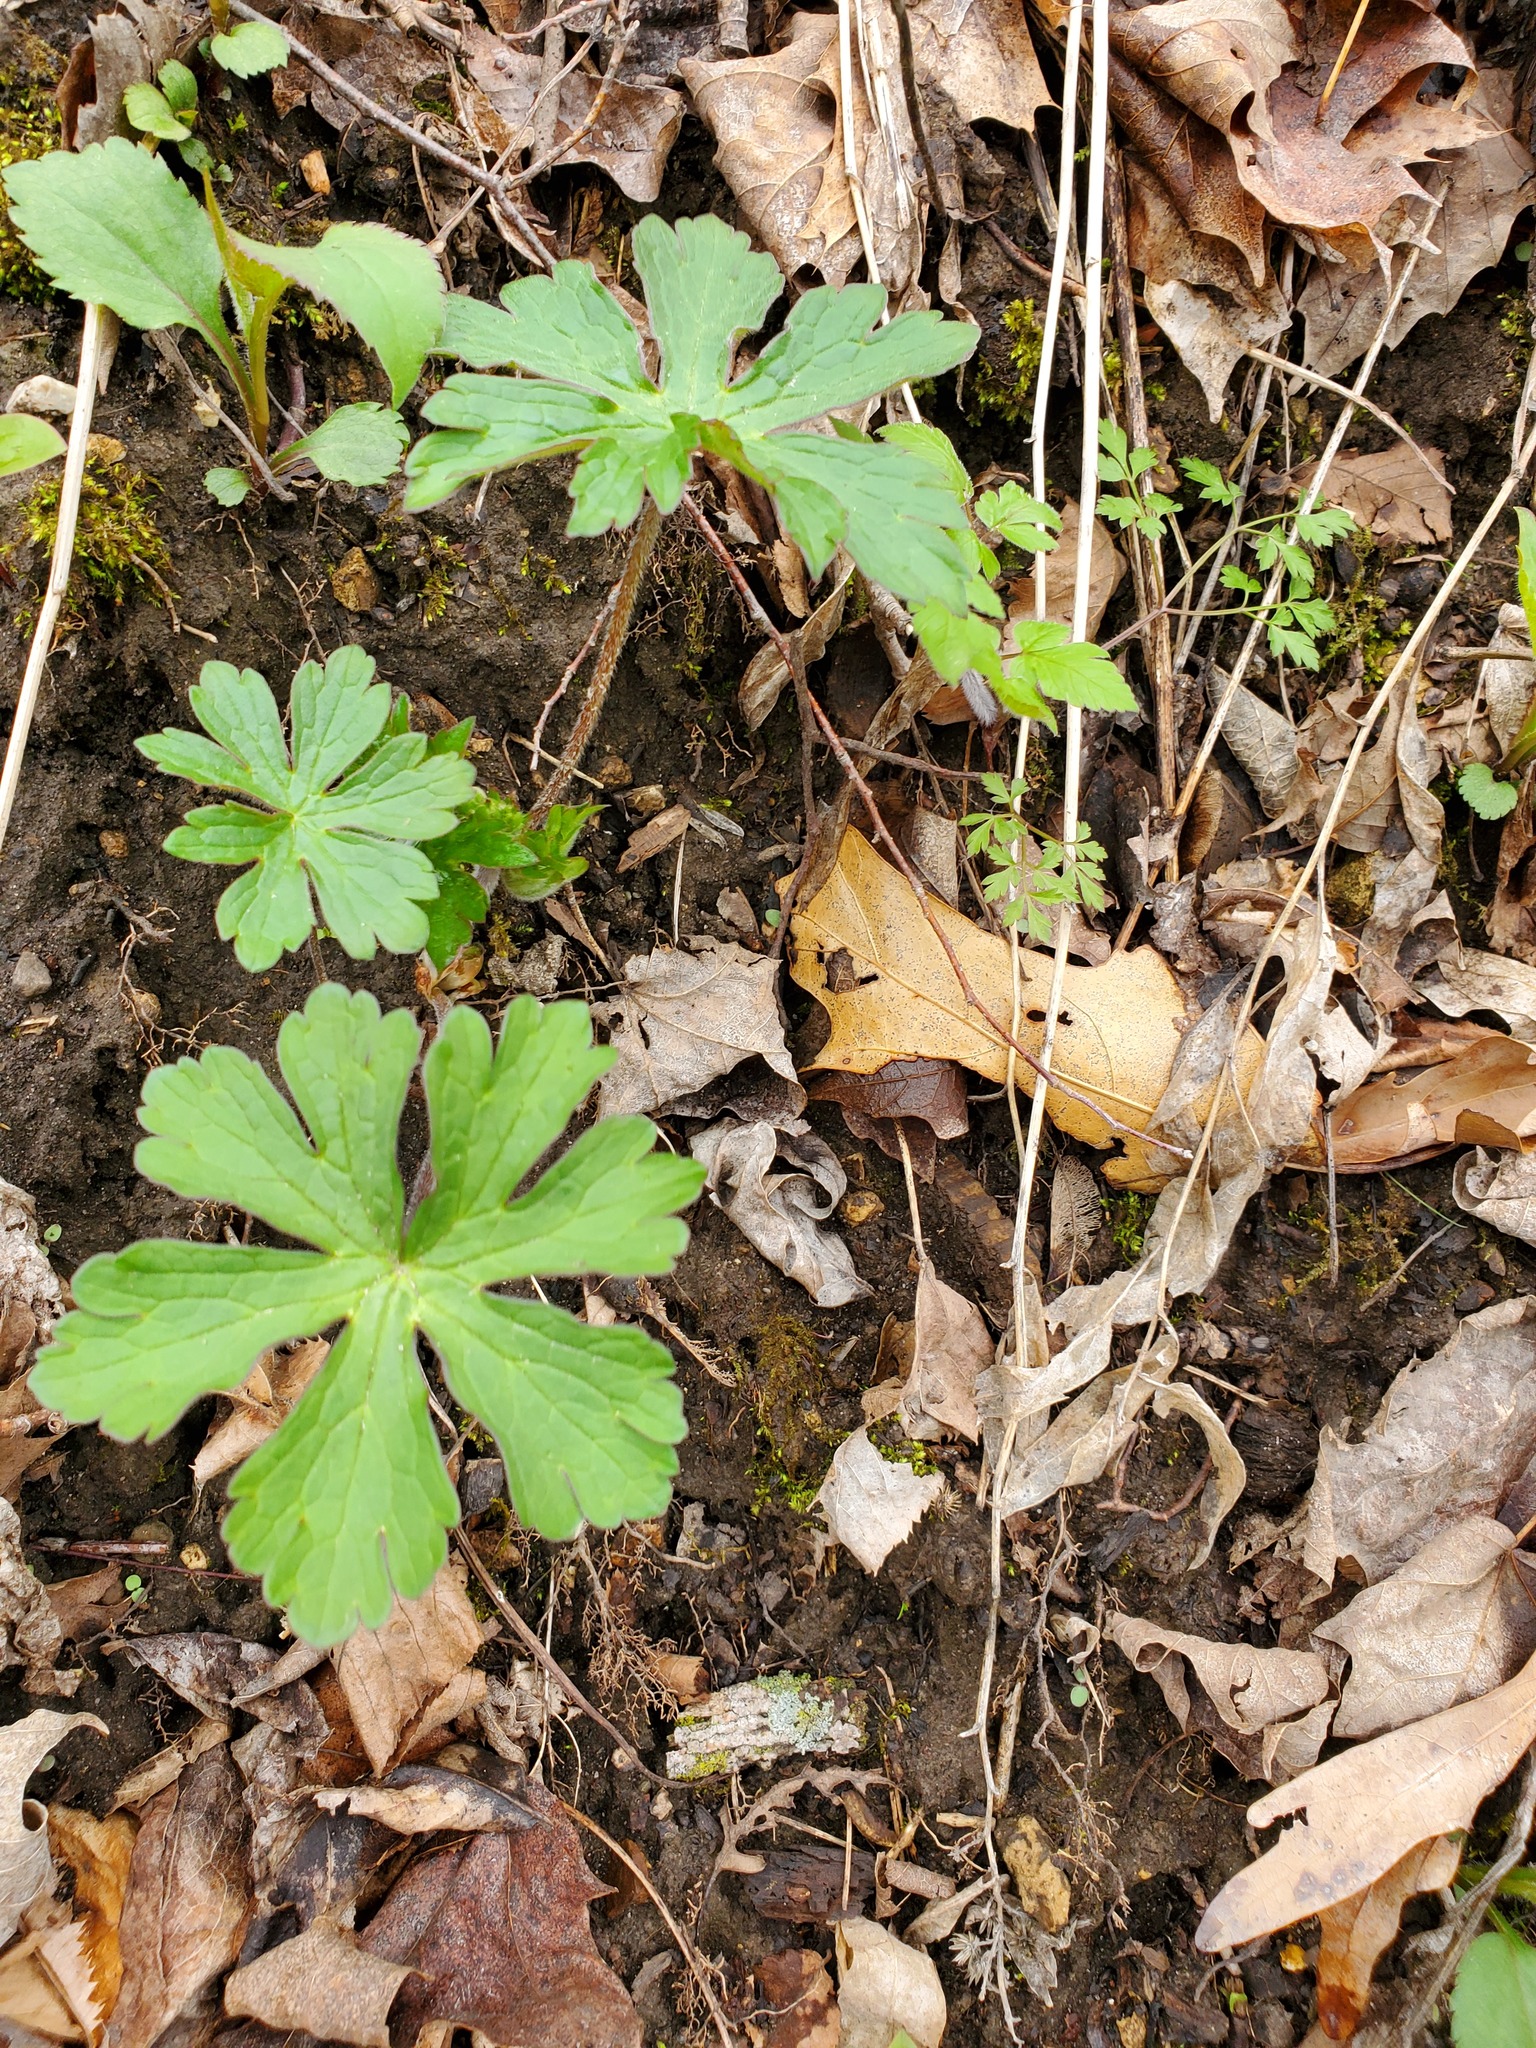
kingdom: Plantae
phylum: Tracheophyta
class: Magnoliopsida
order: Geraniales
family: Geraniaceae
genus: Geranium
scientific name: Geranium maculatum
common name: Spotted geranium
